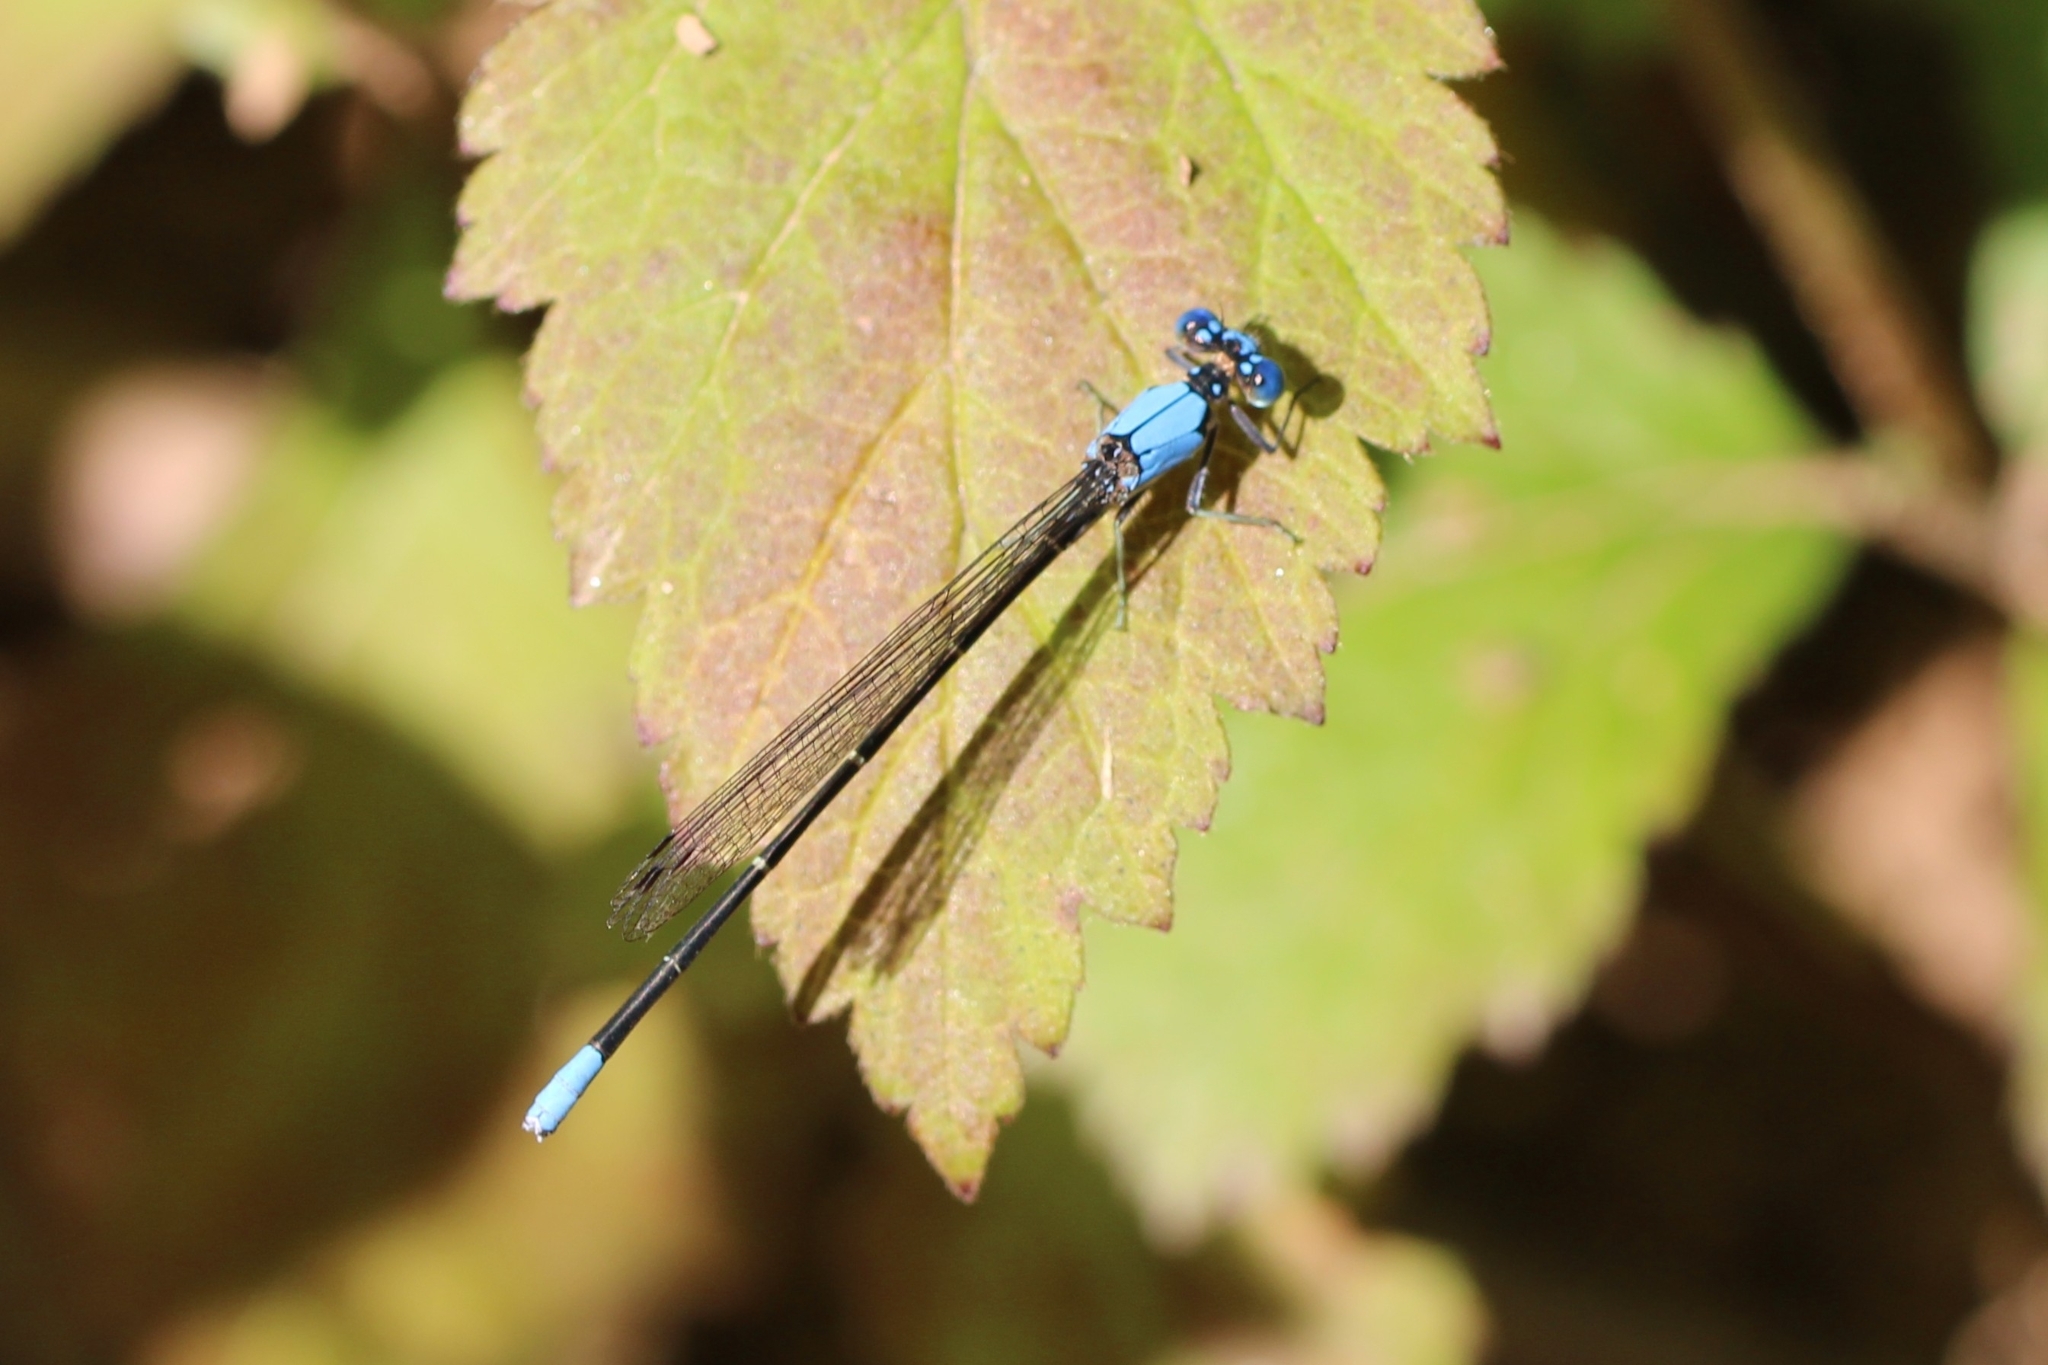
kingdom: Animalia
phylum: Arthropoda
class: Insecta
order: Odonata
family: Coenagrionidae
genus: Argia
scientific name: Argia apicalis
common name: Blue-fronted dancer
